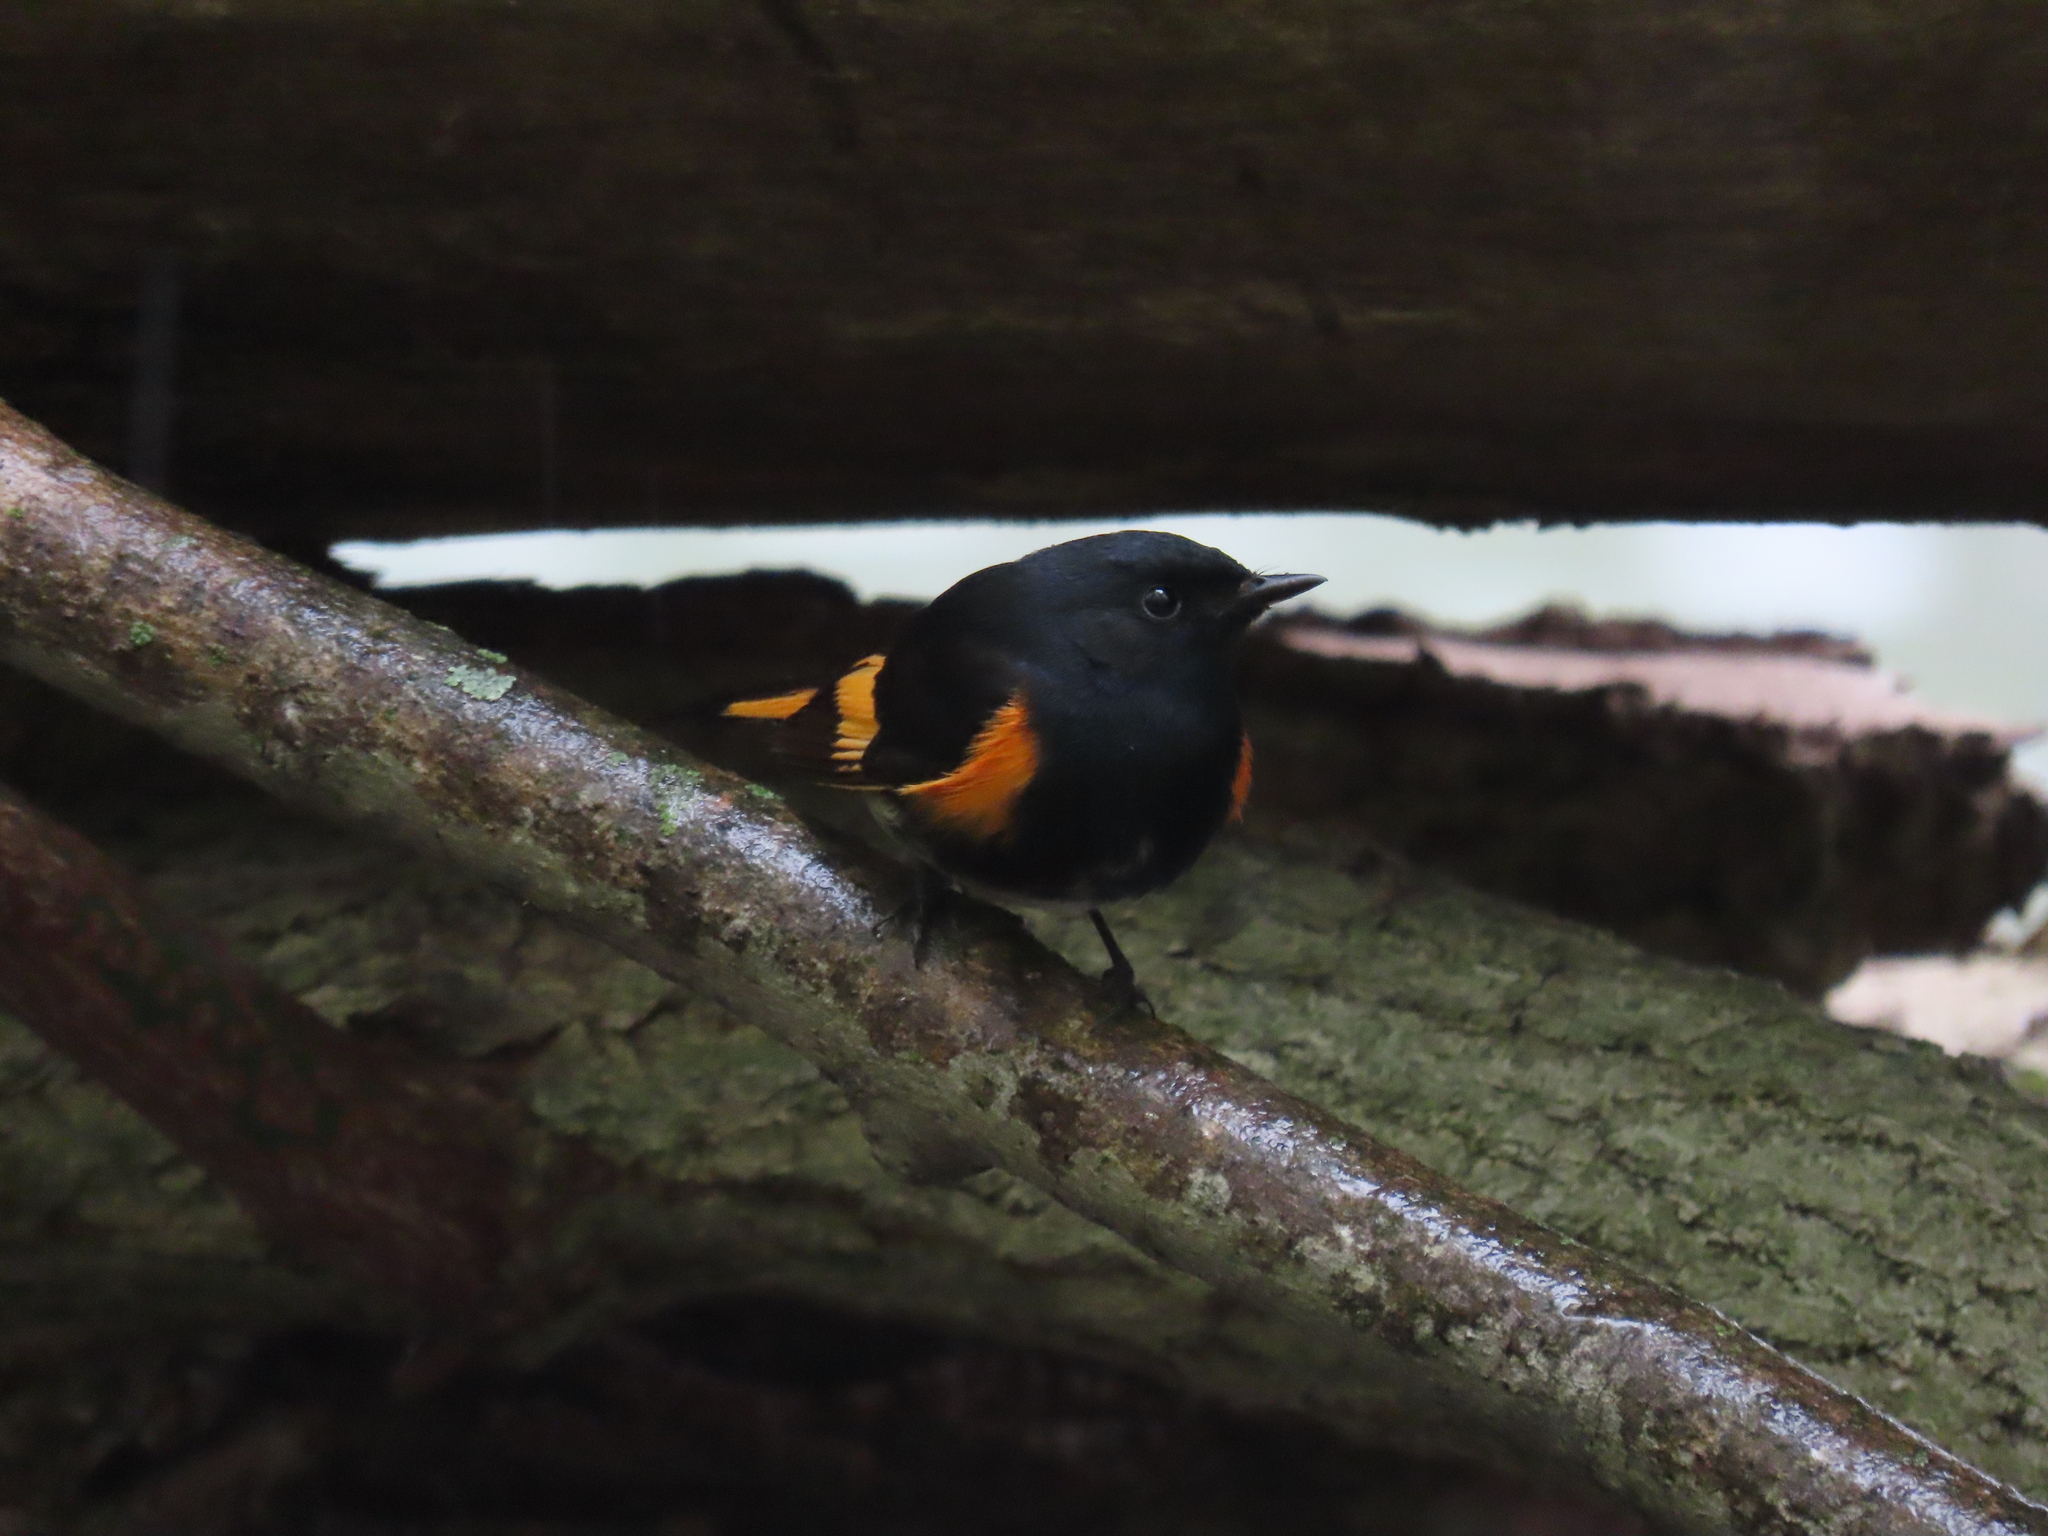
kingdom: Animalia
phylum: Chordata
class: Aves
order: Passeriformes
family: Parulidae
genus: Setophaga
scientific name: Setophaga ruticilla
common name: American redstart
